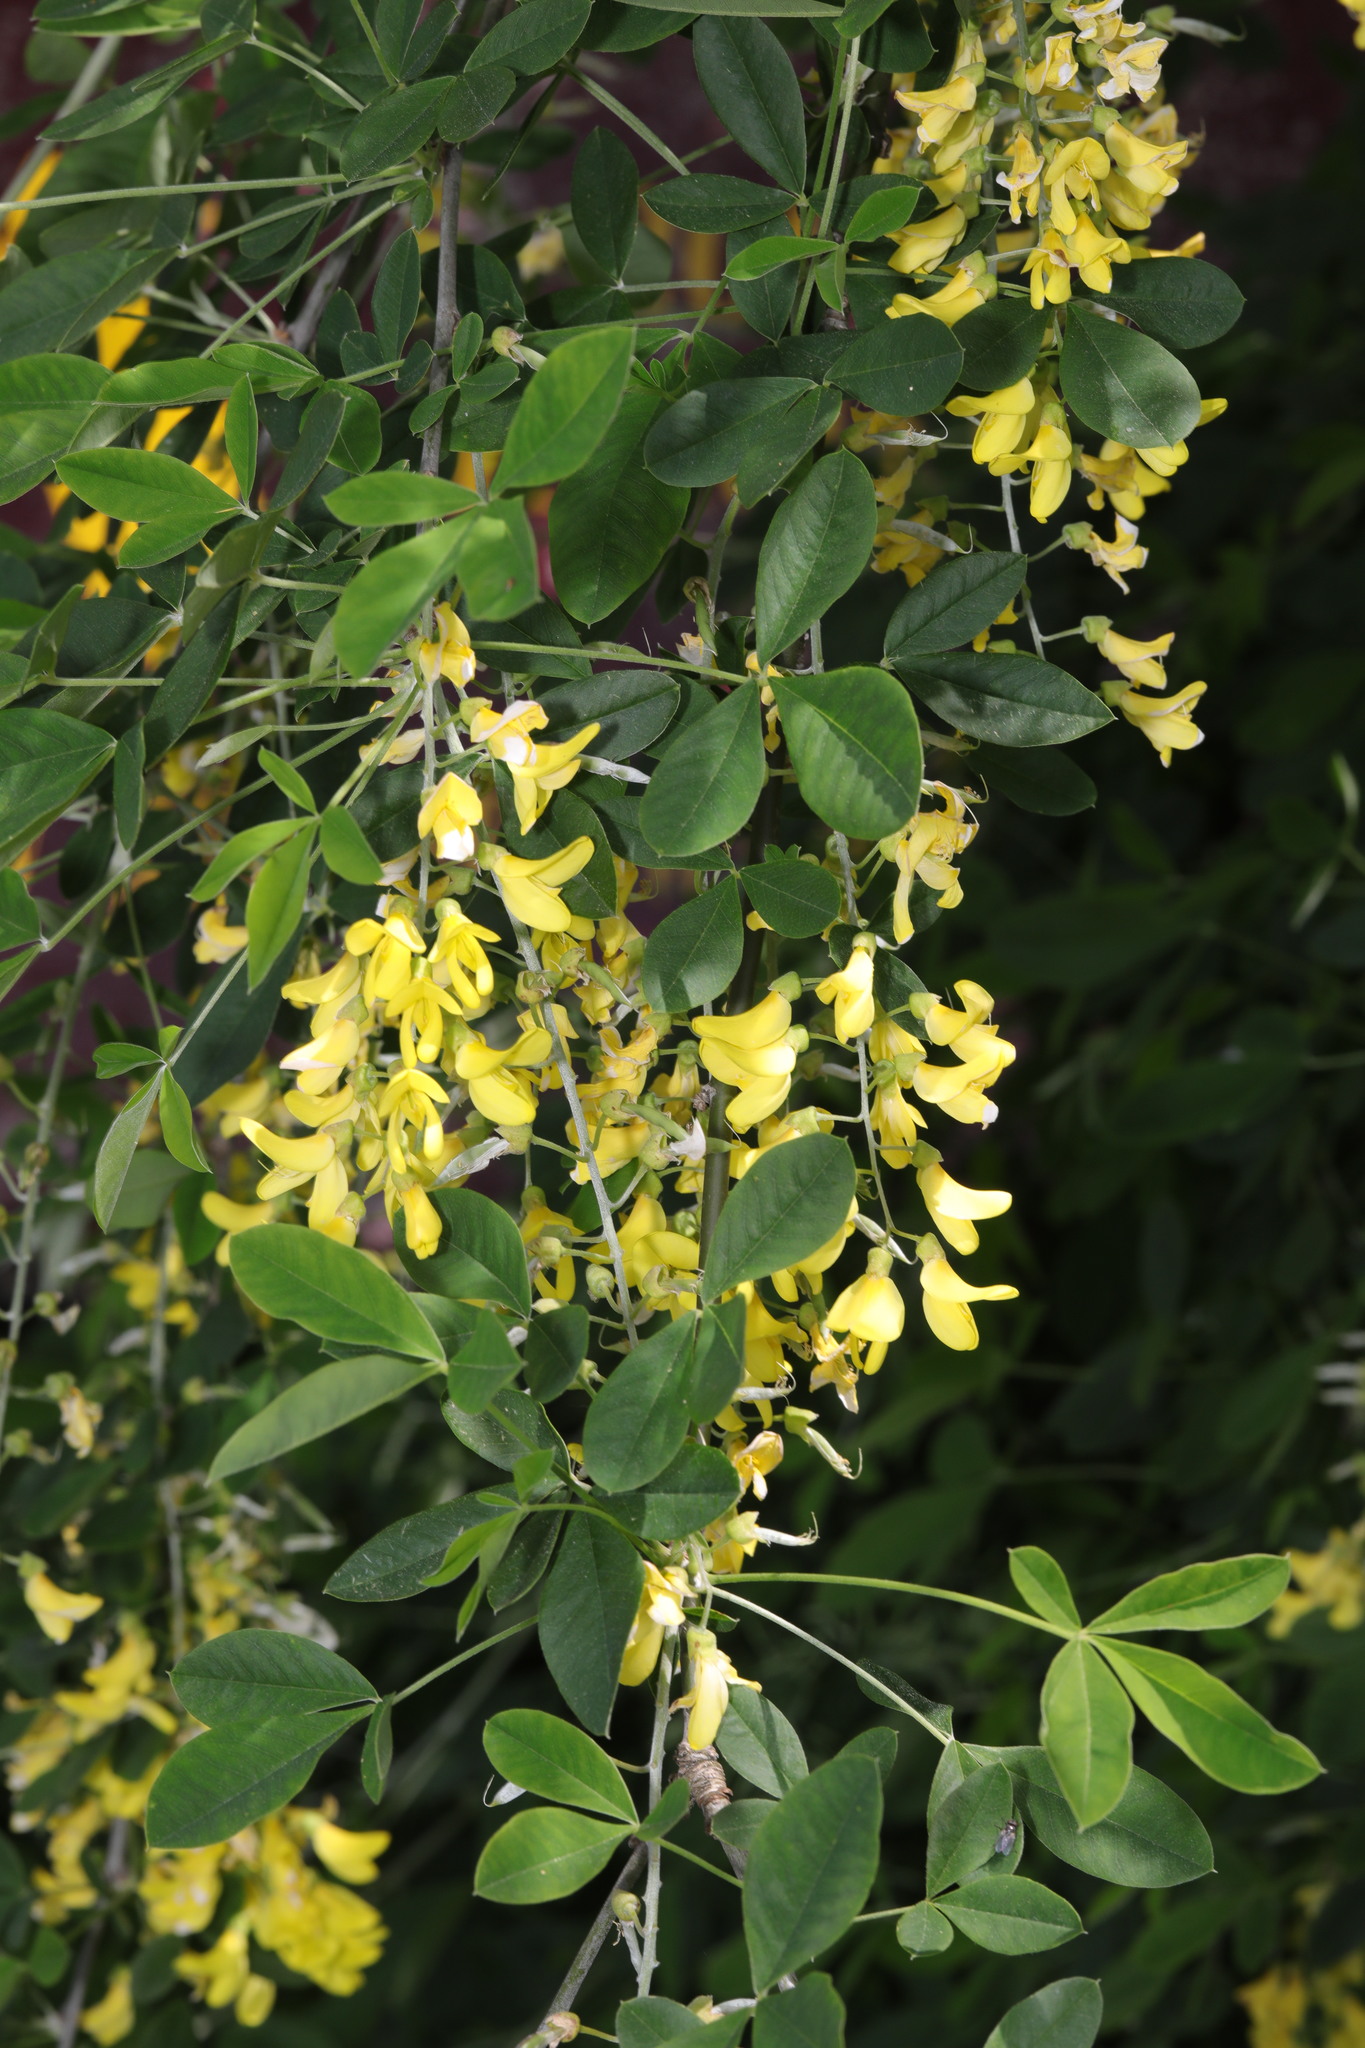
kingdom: Plantae
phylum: Tracheophyta
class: Magnoliopsida
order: Fabales
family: Fabaceae
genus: Laburnum
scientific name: Laburnum anagyroides
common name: Laburnum
